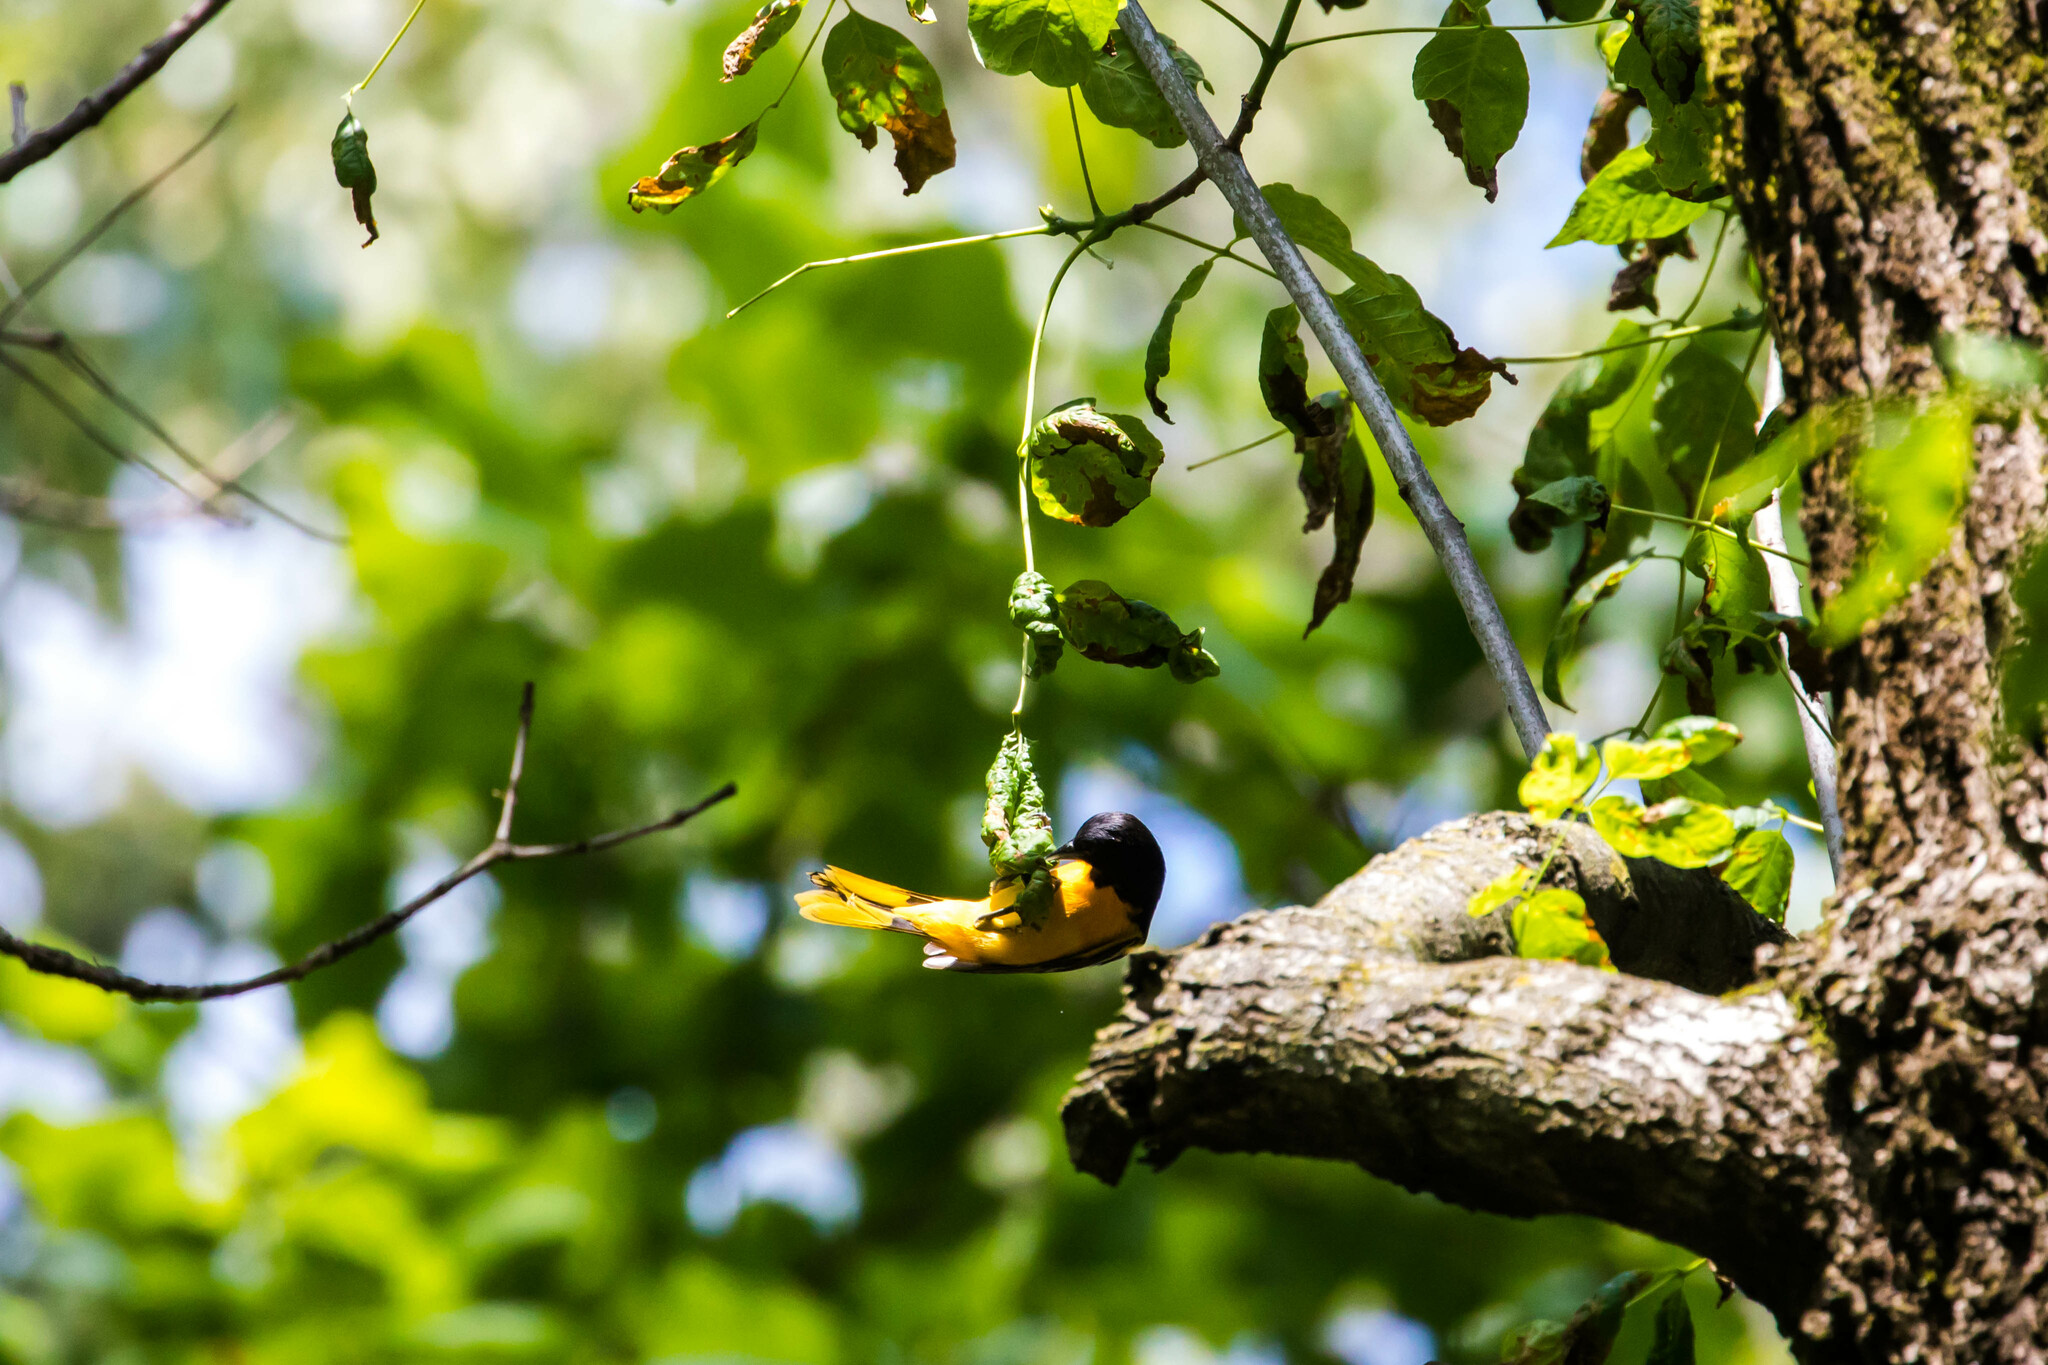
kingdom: Animalia
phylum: Chordata
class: Aves
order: Passeriformes
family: Icteridae
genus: Icterus
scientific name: Icterus galbula
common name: Baltimore oriole
